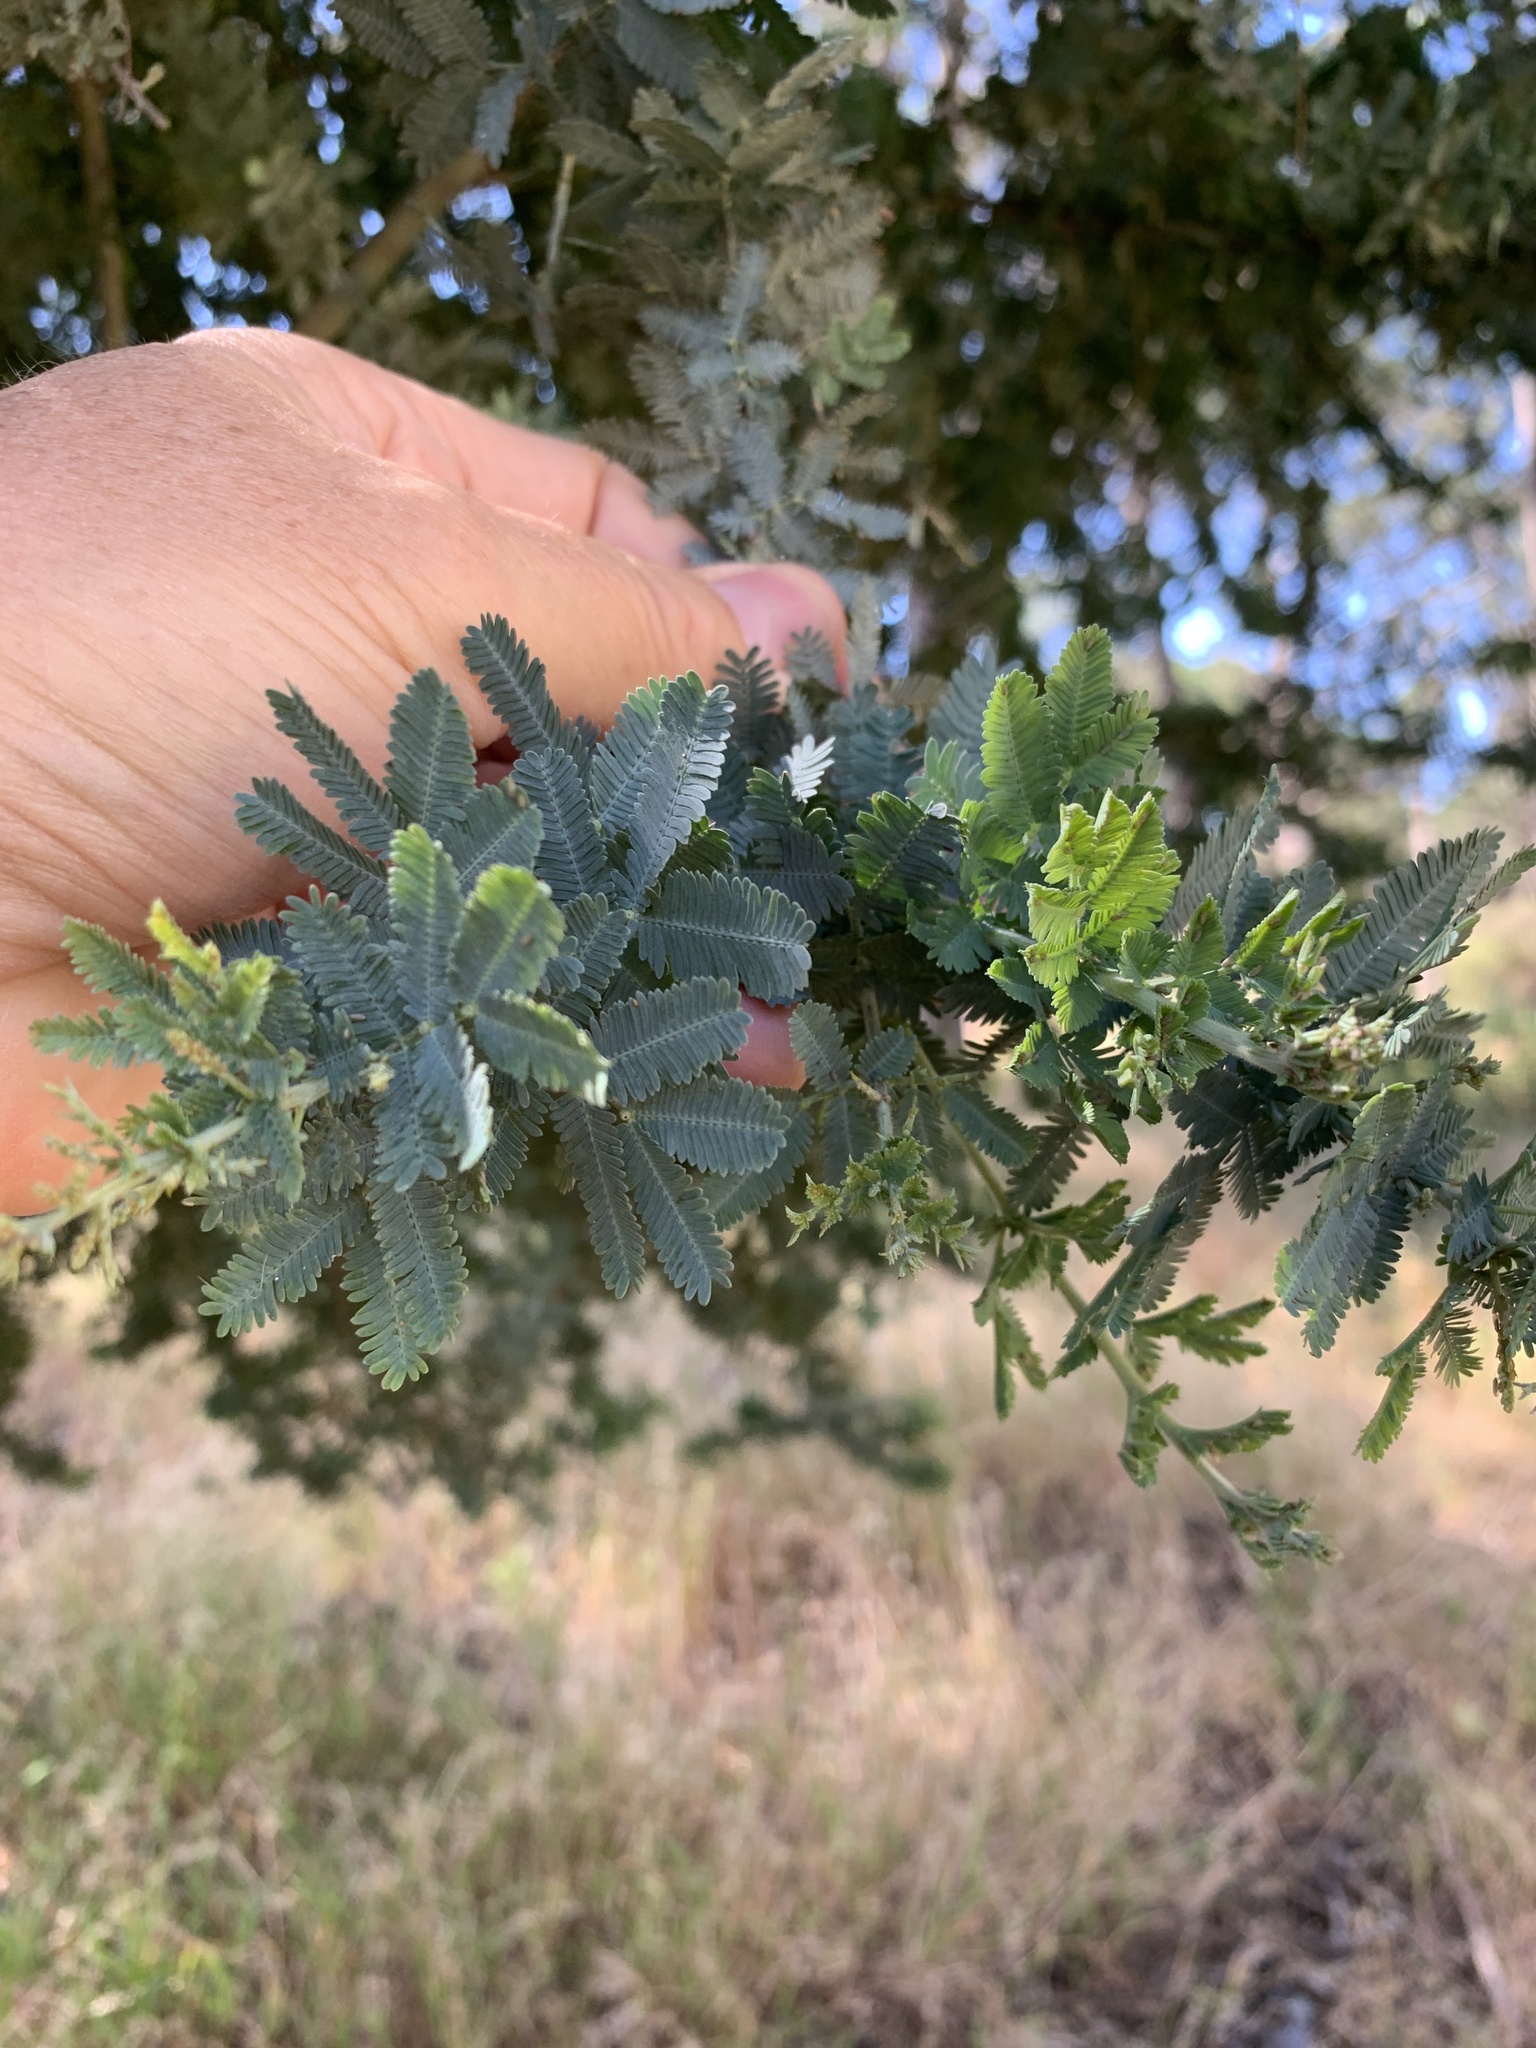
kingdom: Plantae
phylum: Tracheophyta
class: Magnoliopsida
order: Fabales
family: Fabaceae
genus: Acacia
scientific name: Acacia baileyana
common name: Cootamundra wattle
